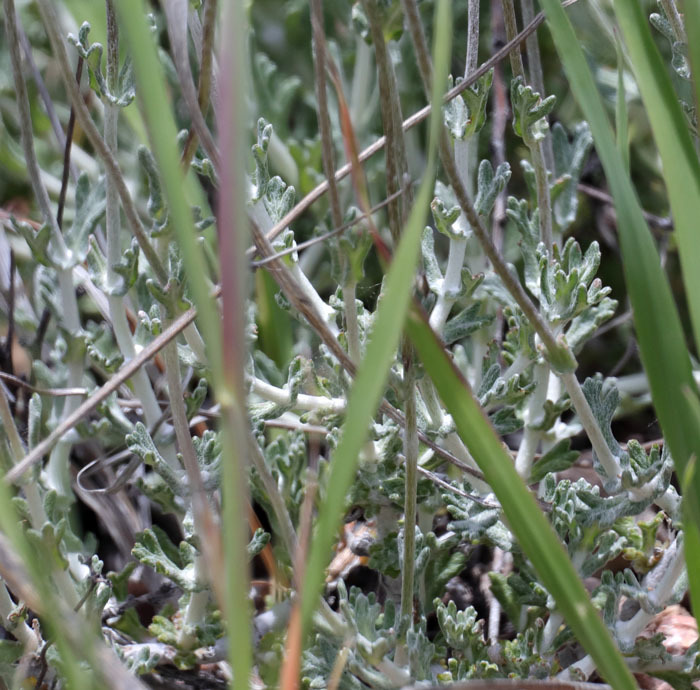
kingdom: Plantae
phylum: Tracheophyta
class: Magnoliopsida
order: Asterales
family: Asteraceae
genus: Eriophyllum
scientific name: Eriophyllum confertiflorum
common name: Golden-yarrow
